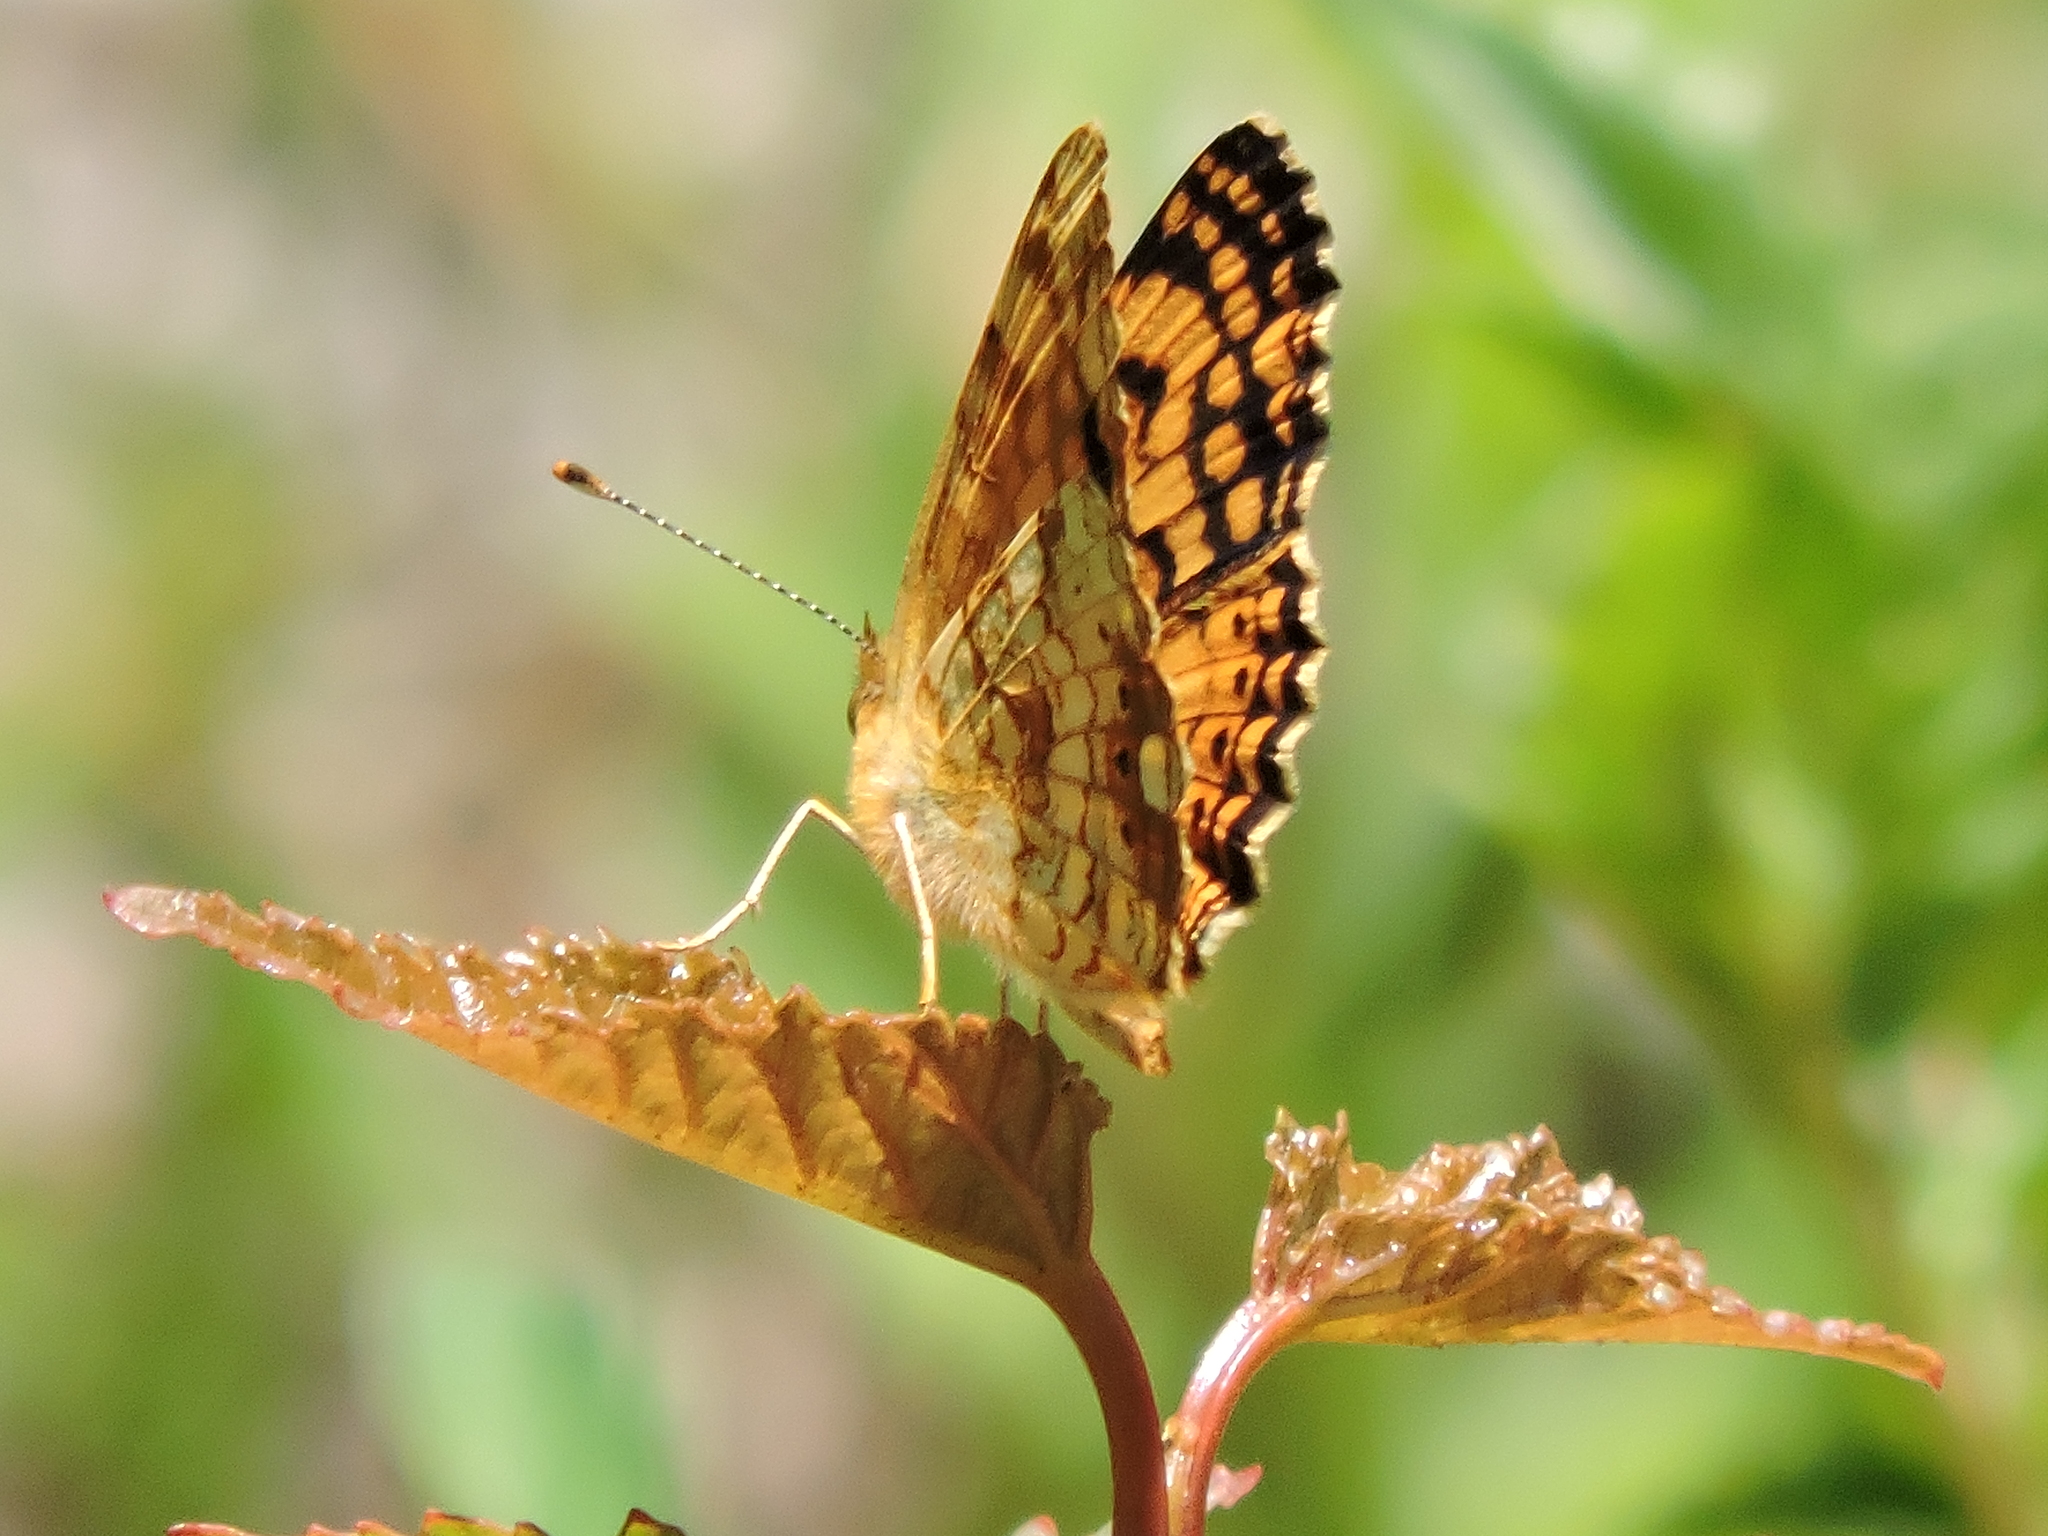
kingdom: Animalia
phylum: Arthropoda
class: Insecta
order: Lepidoptera
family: Nymphalidae
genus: Eresia
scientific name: Eresia aveyrona
